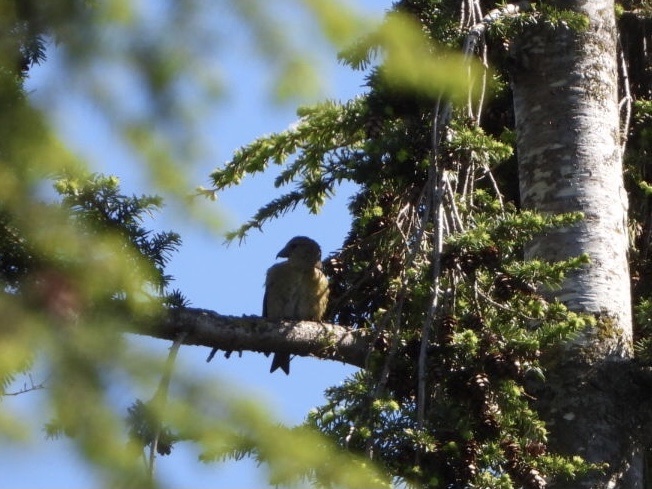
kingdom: Animalia
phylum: Chordata
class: Aves
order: Passeriformes
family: Fringillidae
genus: Loxia
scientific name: Loxia curvirostra
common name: Red crossbill
